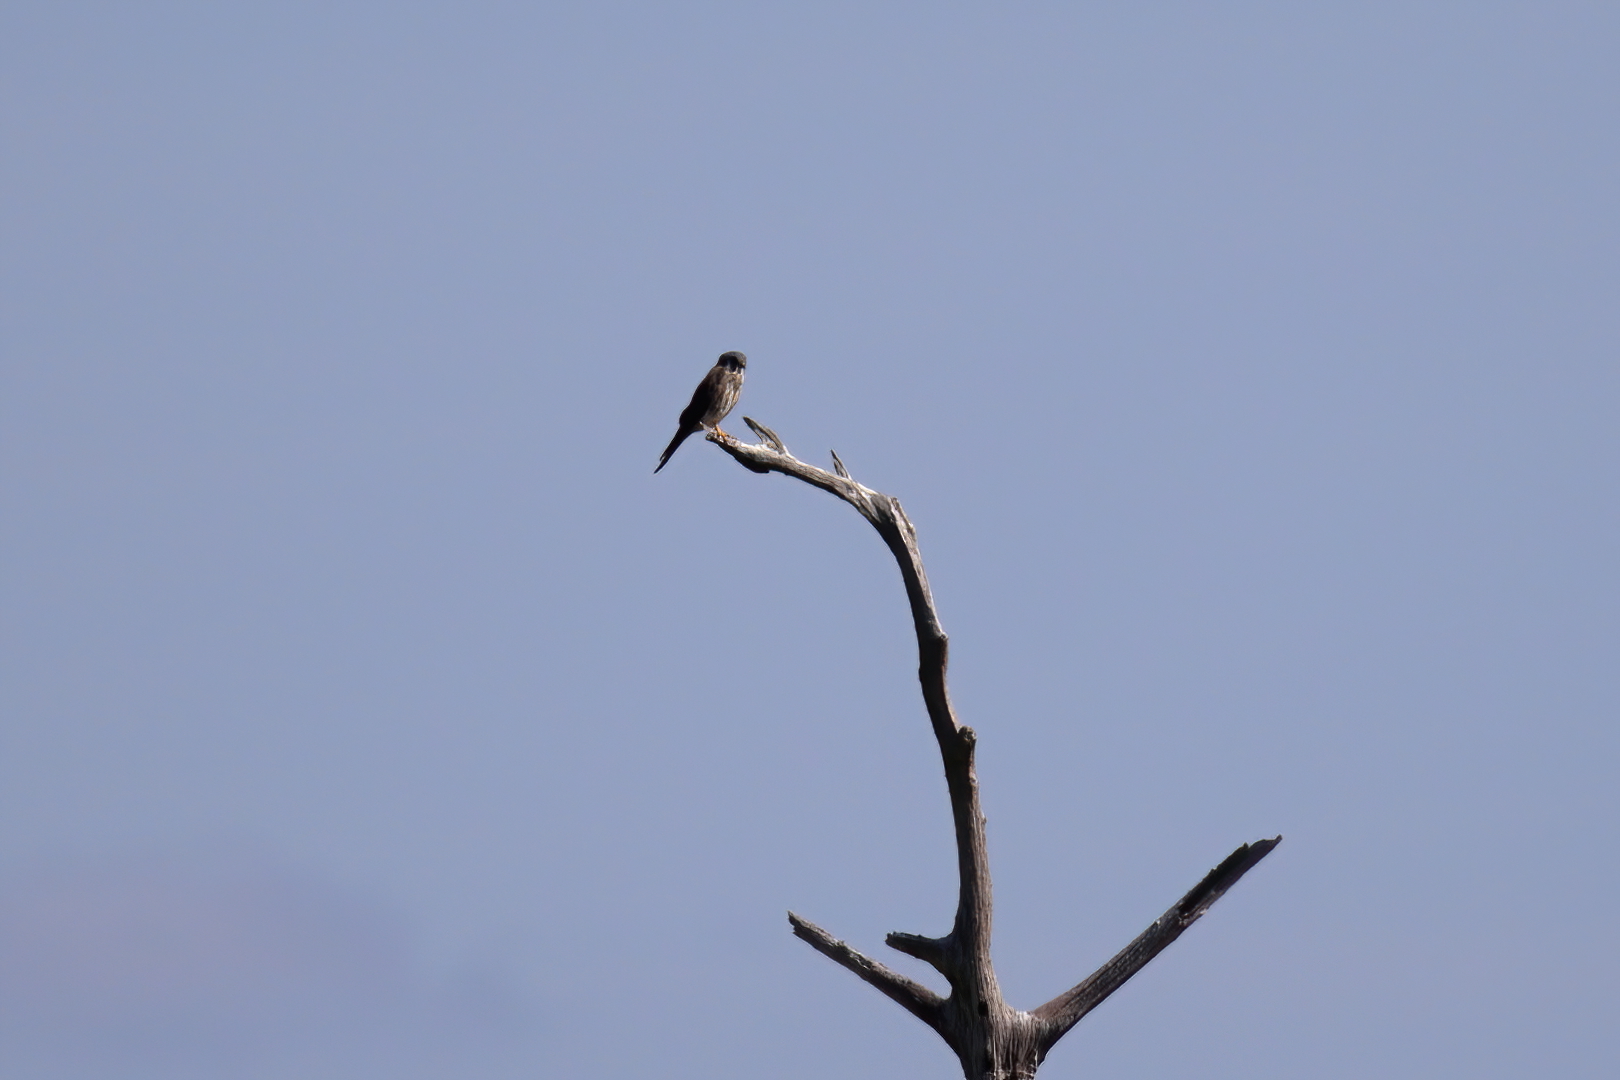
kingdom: Animalia
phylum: Chordata
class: Aves
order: Falconiformes
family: Falconidae
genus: Falco
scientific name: Falco sparverius
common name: American kestrel
